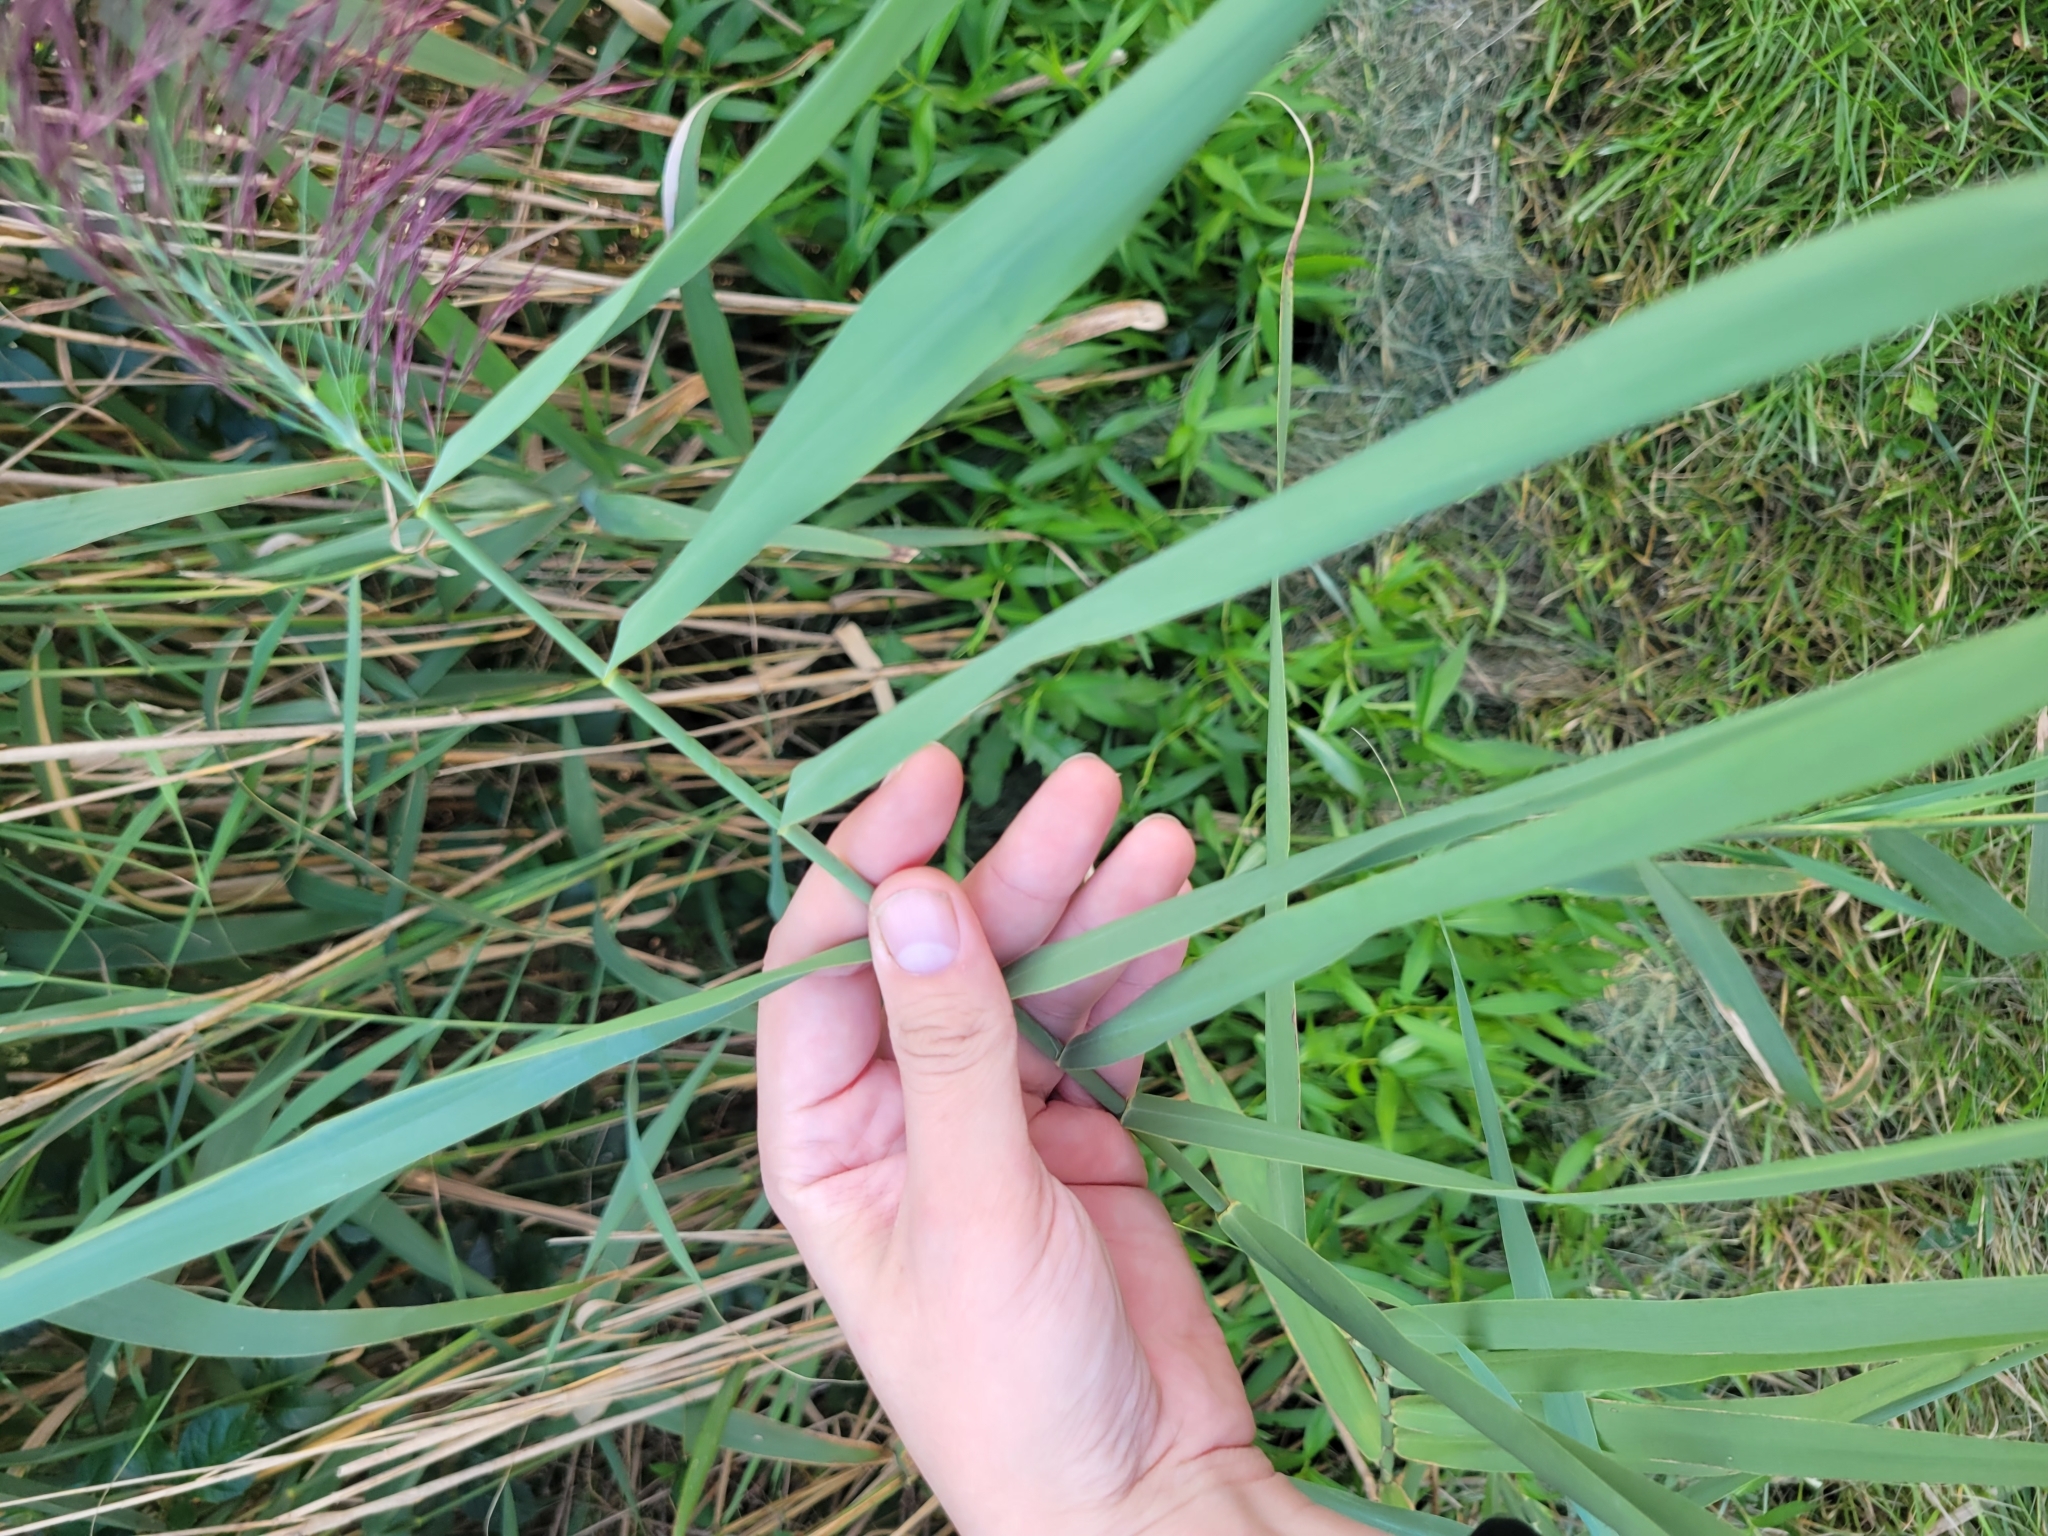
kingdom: Plantae
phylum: Tracheophyta
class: Liliopsida
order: Poales
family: Poaceae
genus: Phragmites
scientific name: Phragmites australis
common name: Common reed
